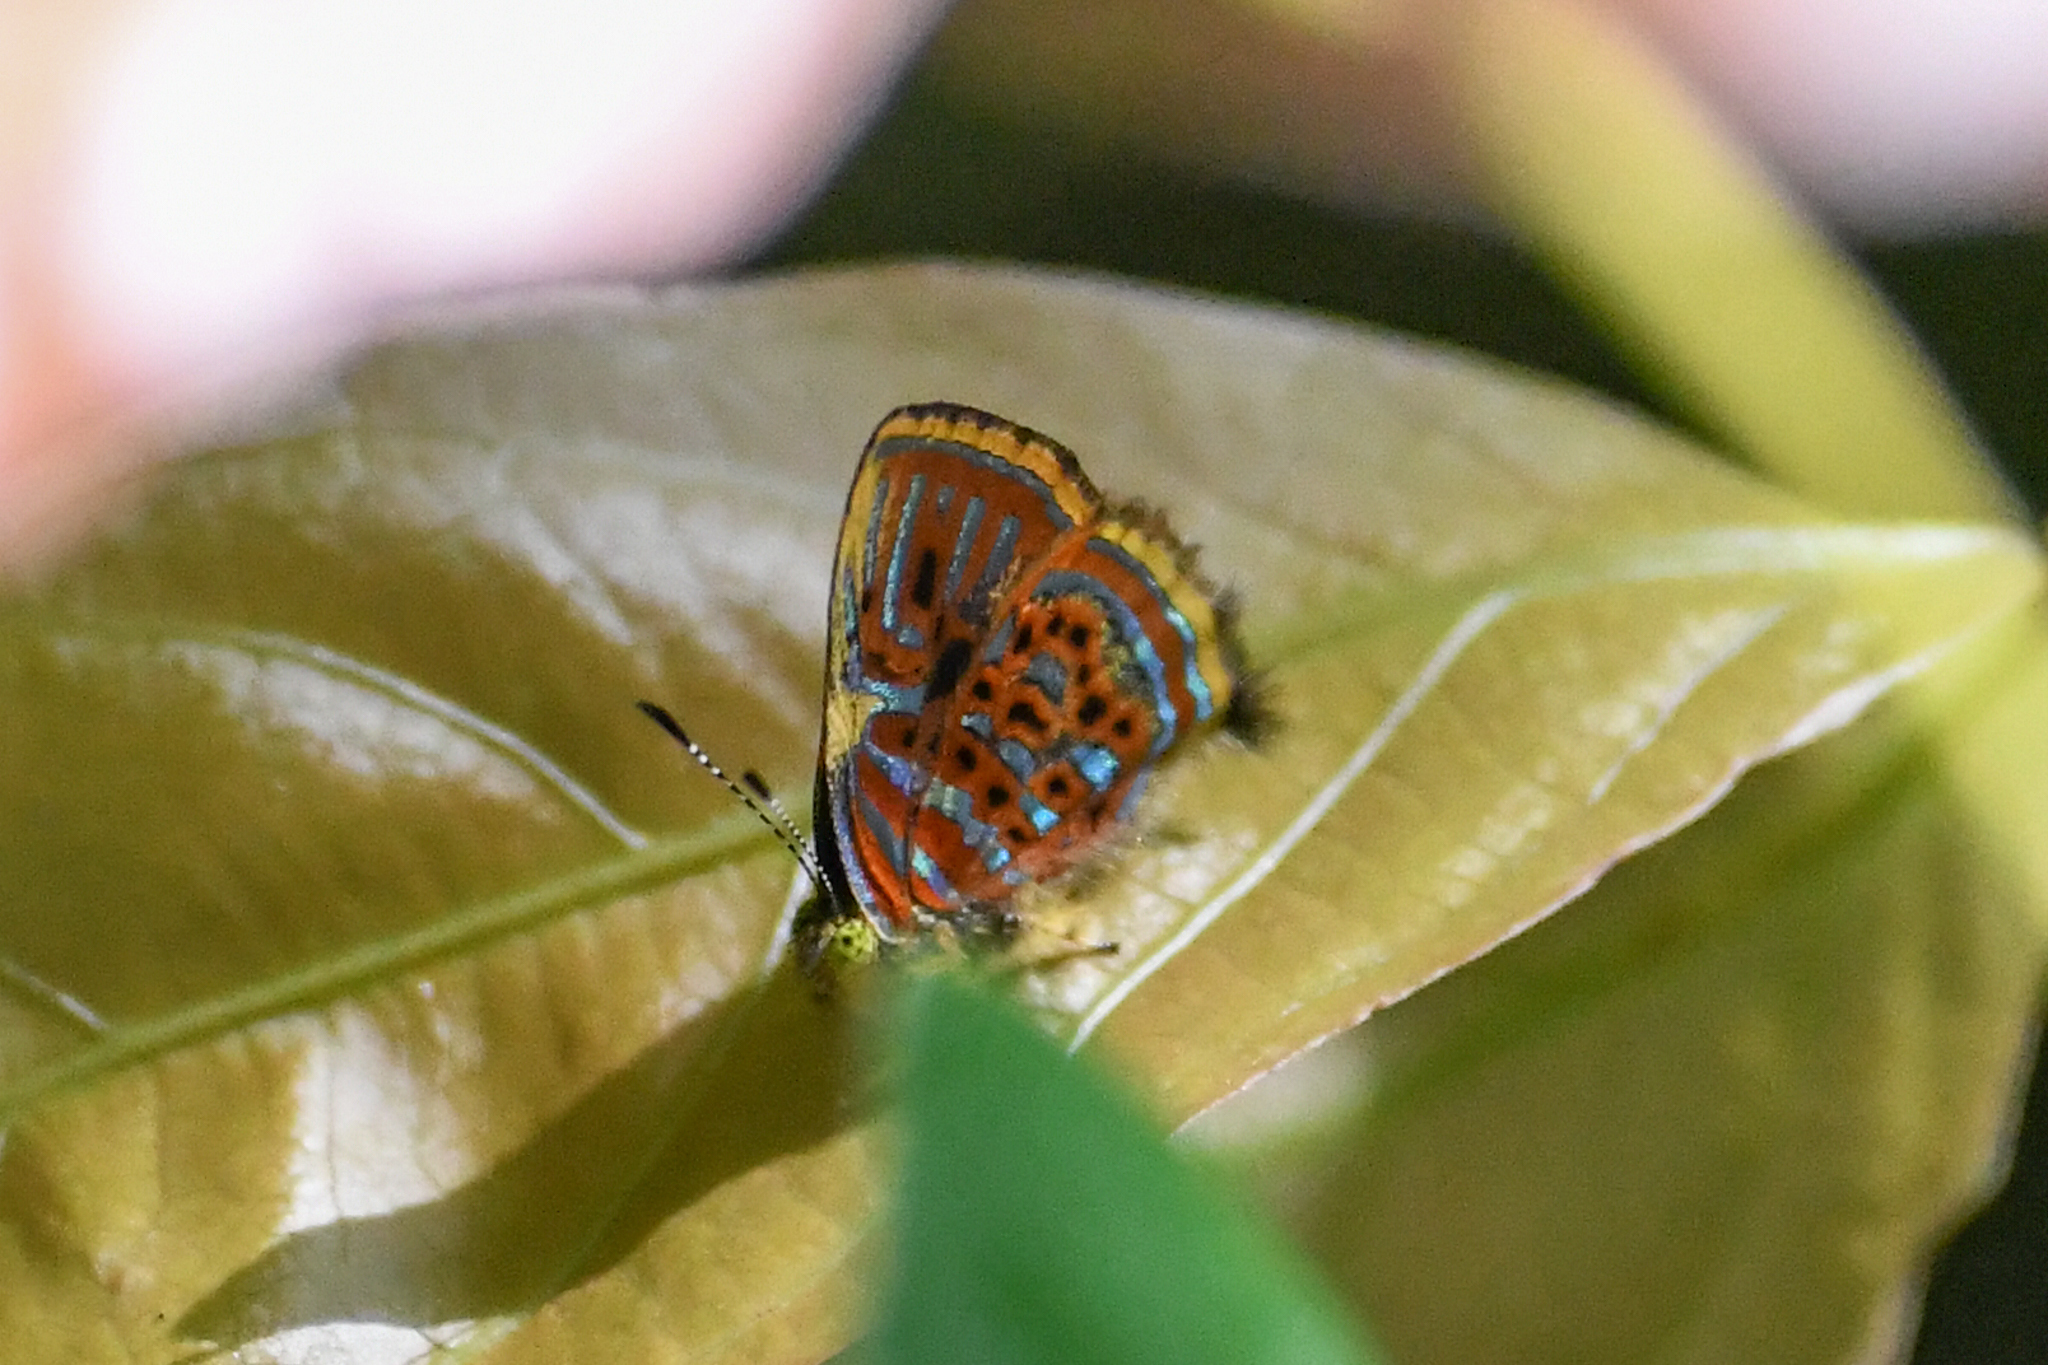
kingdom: Animalia
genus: Charis
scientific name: Charis gamelia
